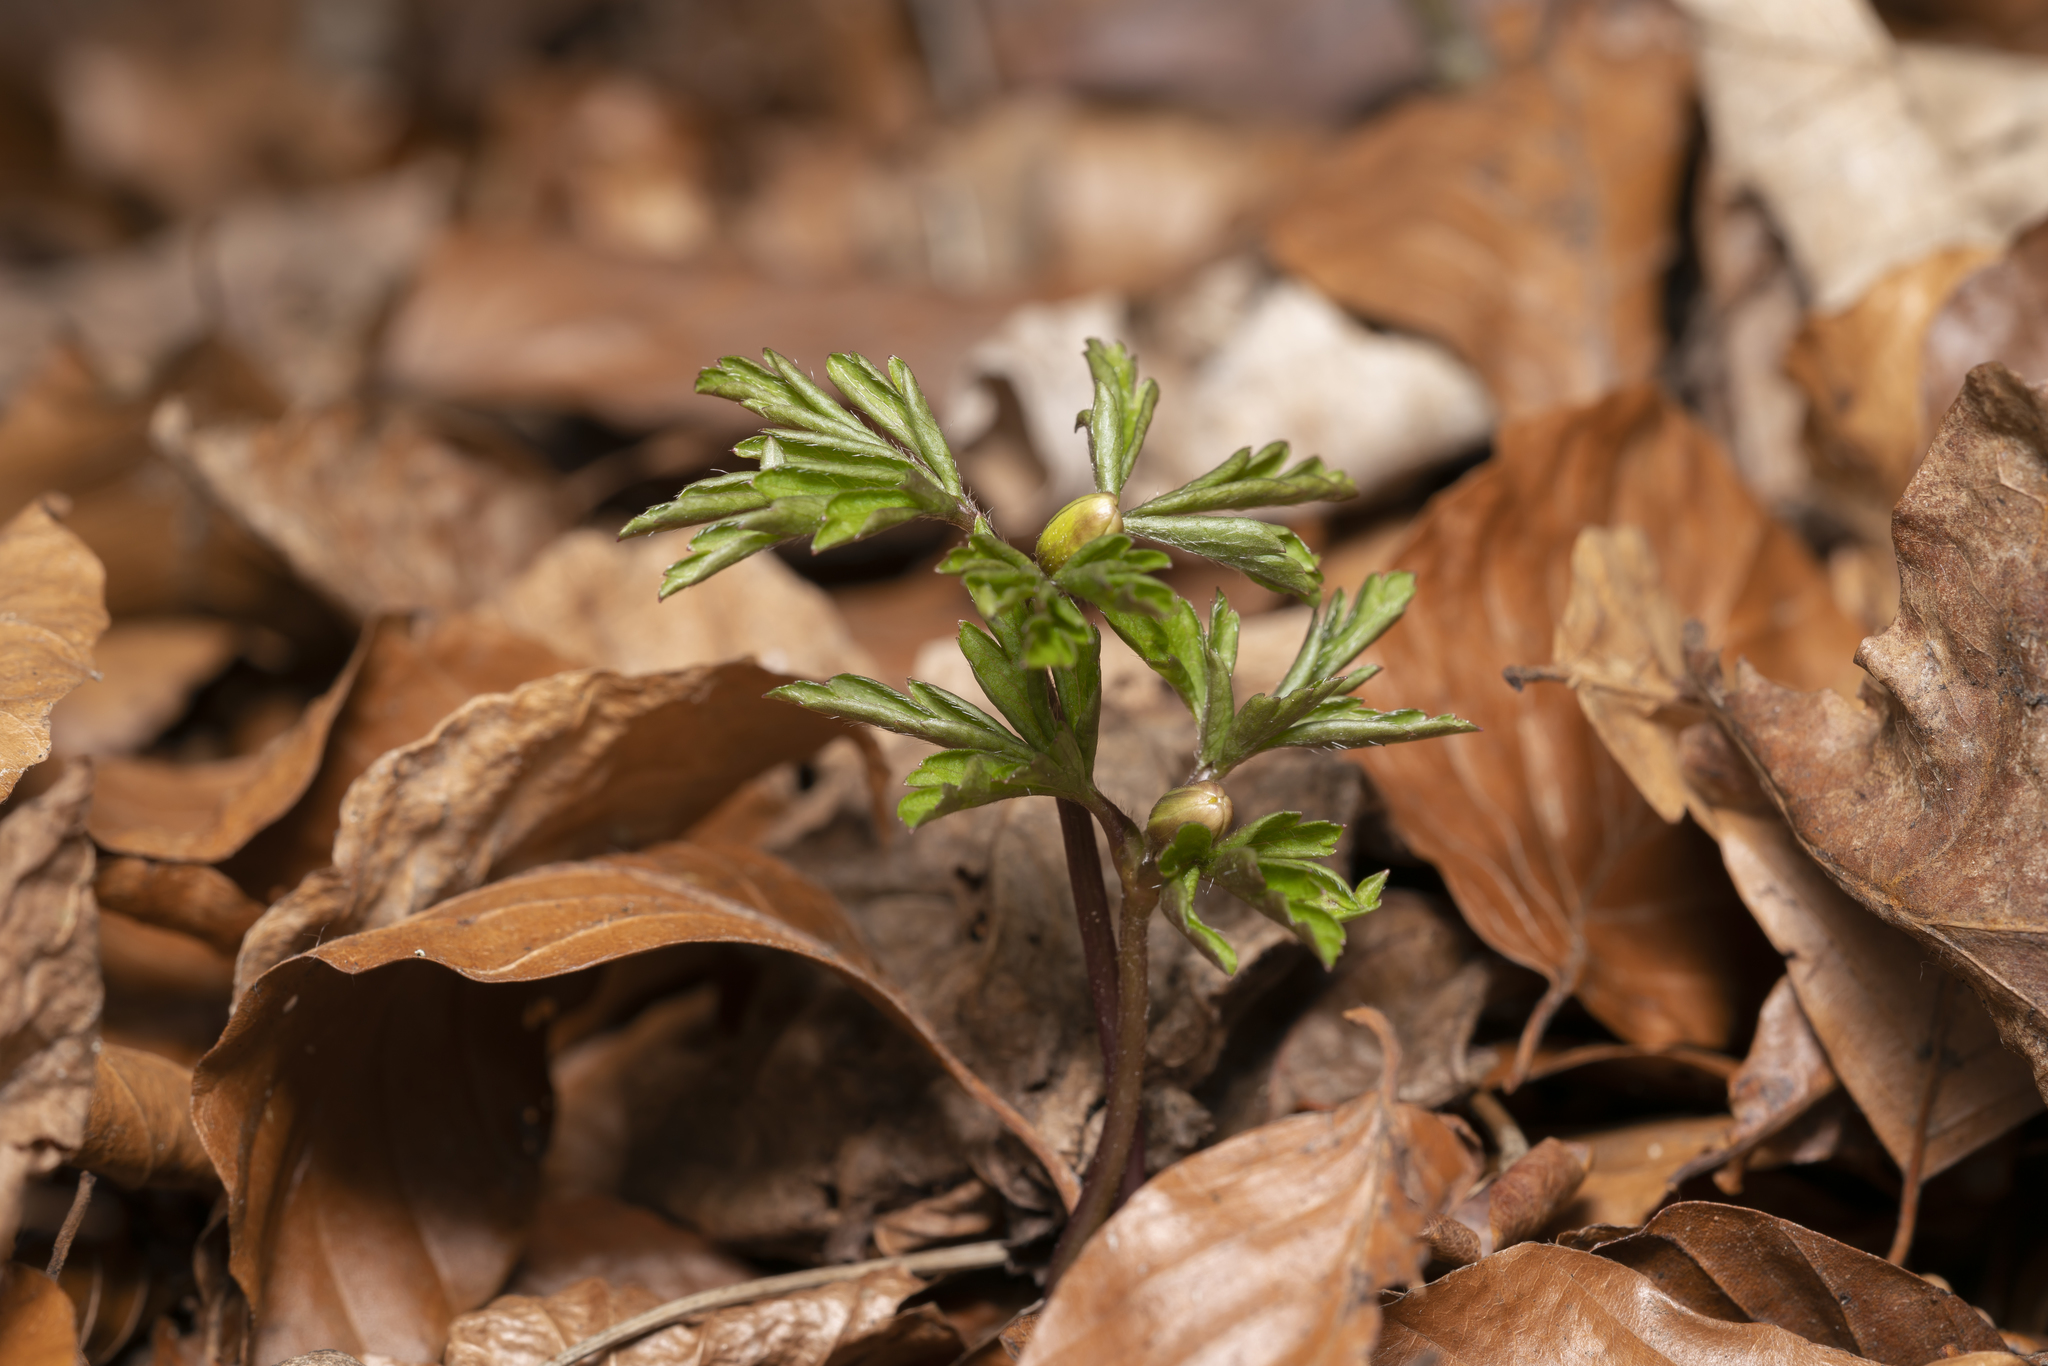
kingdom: Plantae
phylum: Tracheophyta
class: Magnoliopsida
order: Ranunculales
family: Ranunculaceae
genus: Anemone
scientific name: Anemone nemorosa
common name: Wood anemone
